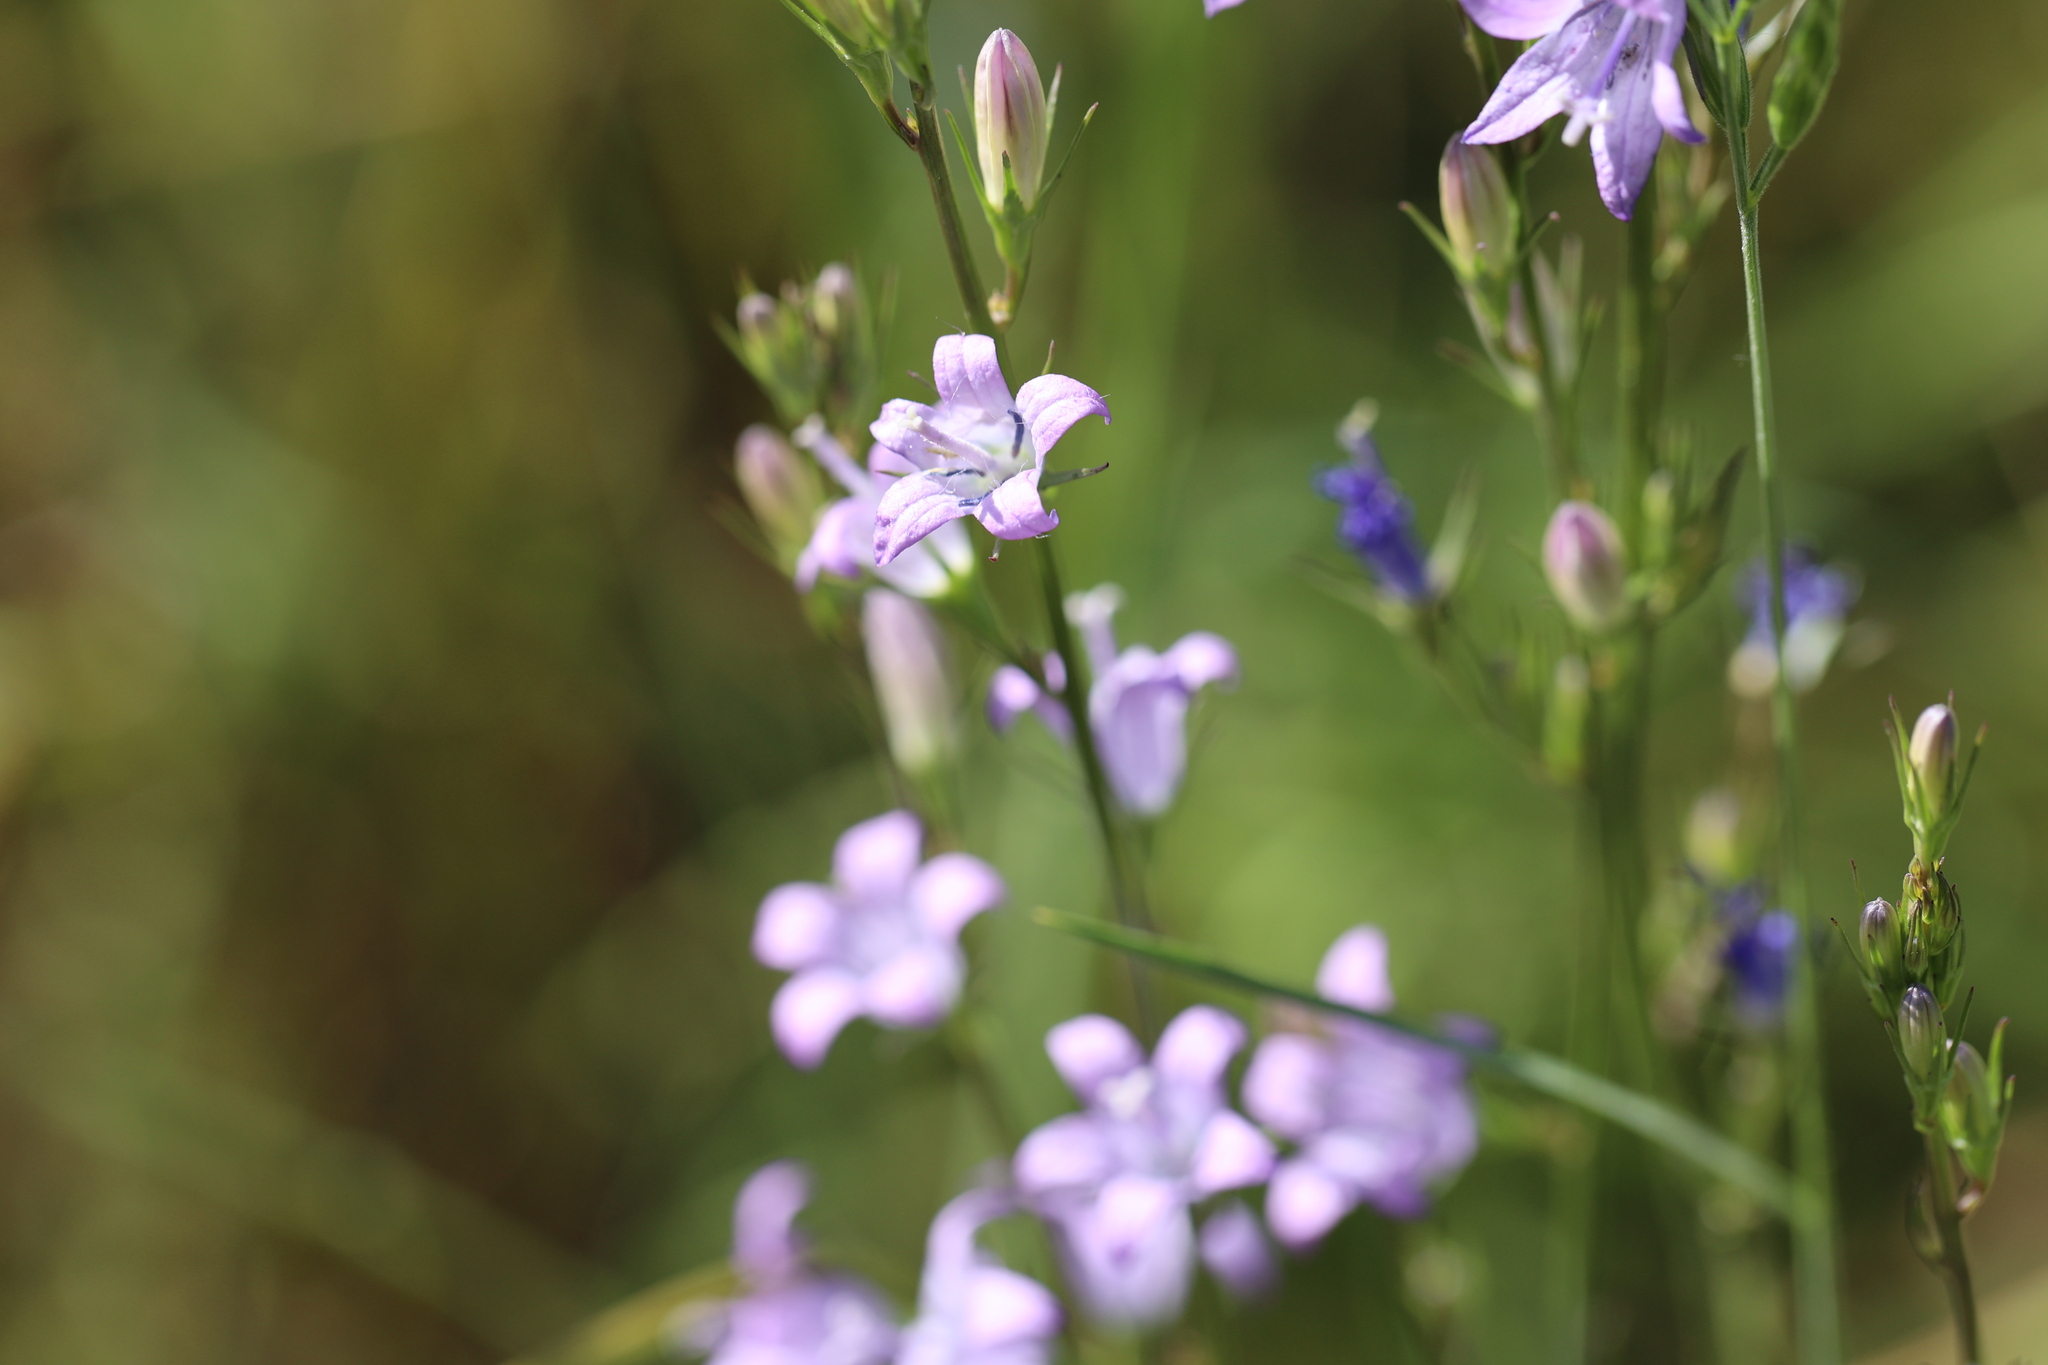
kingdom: Plantae
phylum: Tracheophyta
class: Magnoliopsida
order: Asterales
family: Campanulaceae
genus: Campanula
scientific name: Campanula rapunculus
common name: Rampion bellflower
